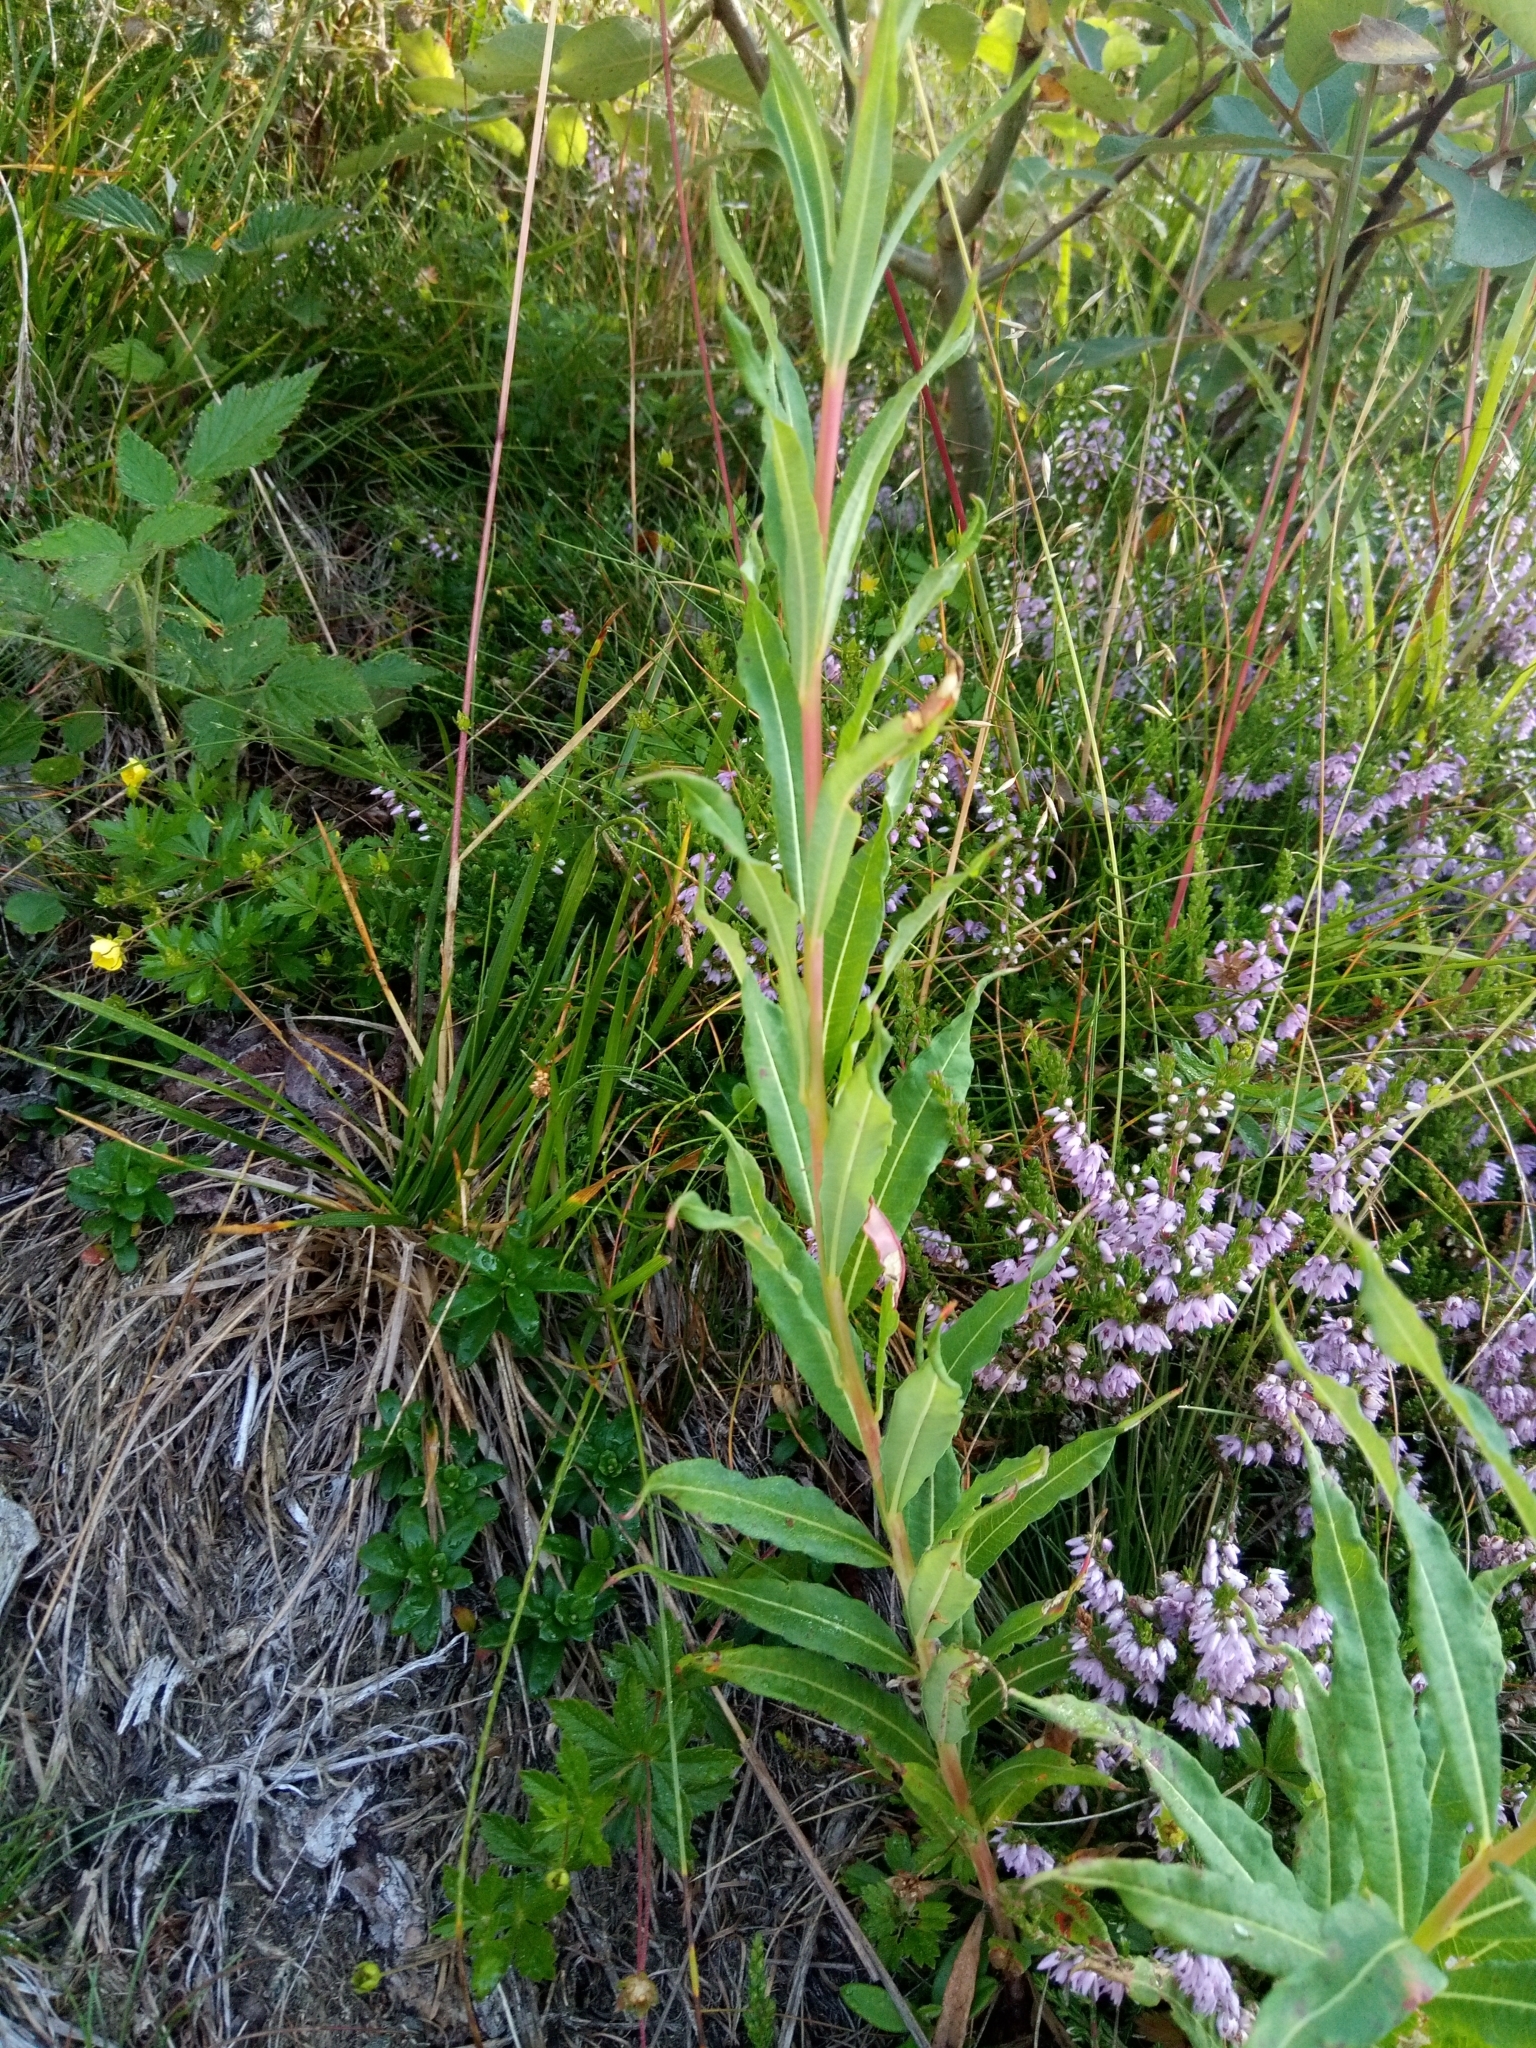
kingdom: Plantae
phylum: Tracheophyta
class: Magnoliopsida
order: Myrtales
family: Onagraceae
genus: Chamaenerion
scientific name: Chamaenerion angustifolium
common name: Fireweed
